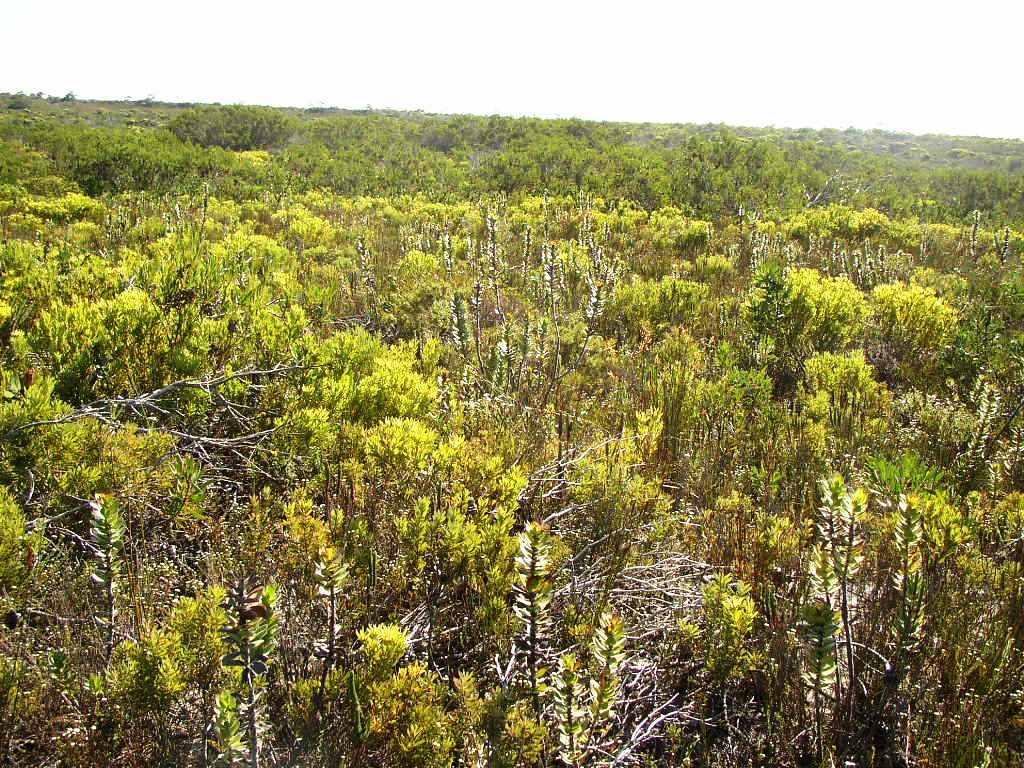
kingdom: Plantae
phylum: Tracheophyta
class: Magnoliopsida
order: Proteales
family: Proteaceae
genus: Leucadendron
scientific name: Leucadendron meridianum
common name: Limestone conebush
